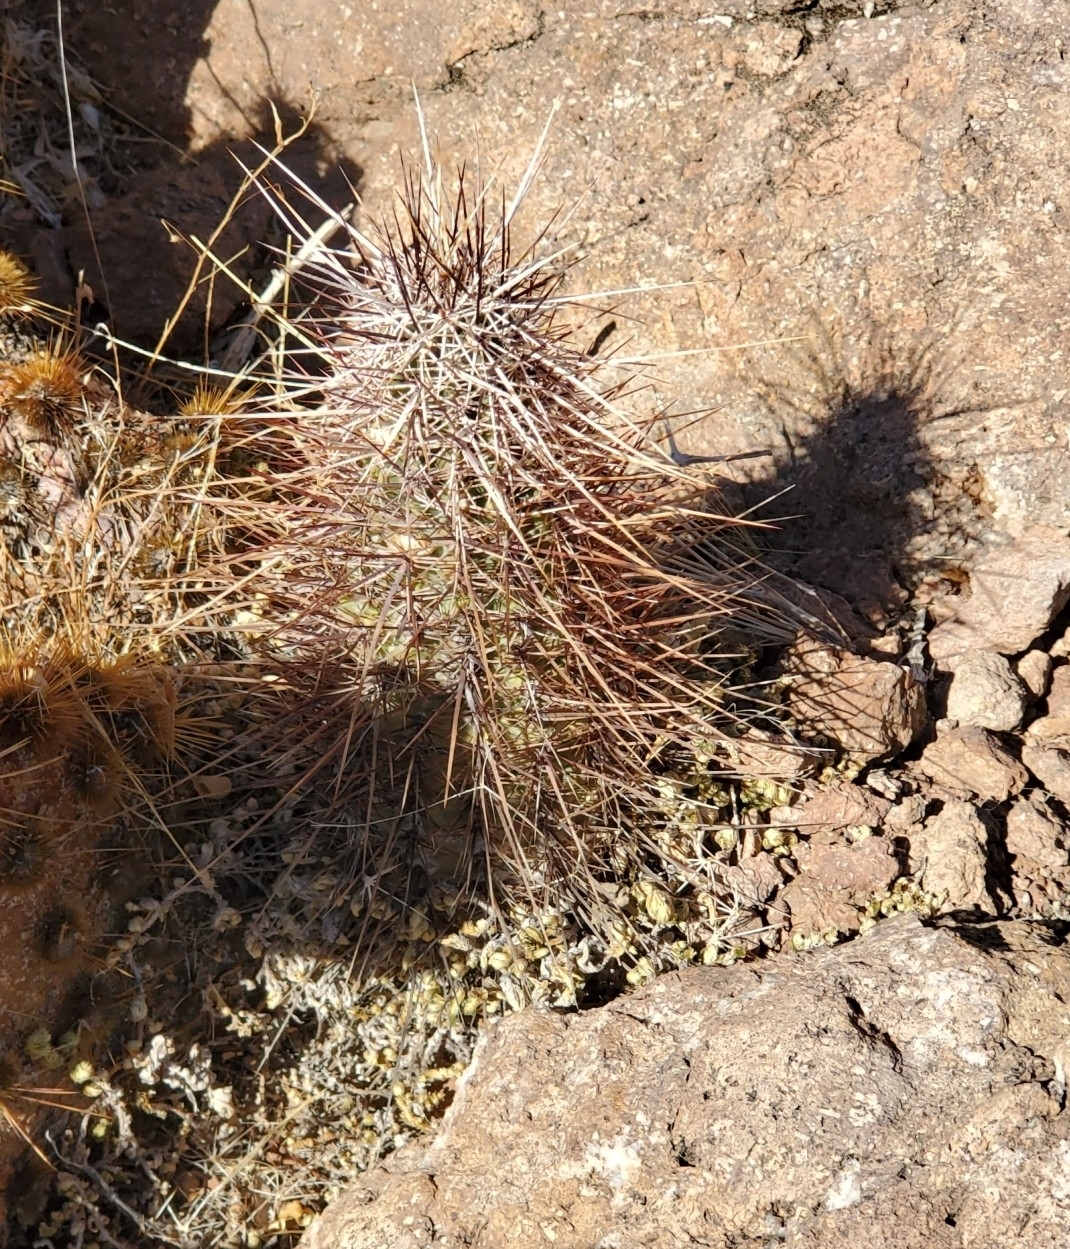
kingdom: Plantae
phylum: Tracheophyta
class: Magnoliopsida
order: Caryophyllales
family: Cactaceae
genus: Echinocereus
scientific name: Echinocereus engelmannii
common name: Engelmann's hedgehog cactus
